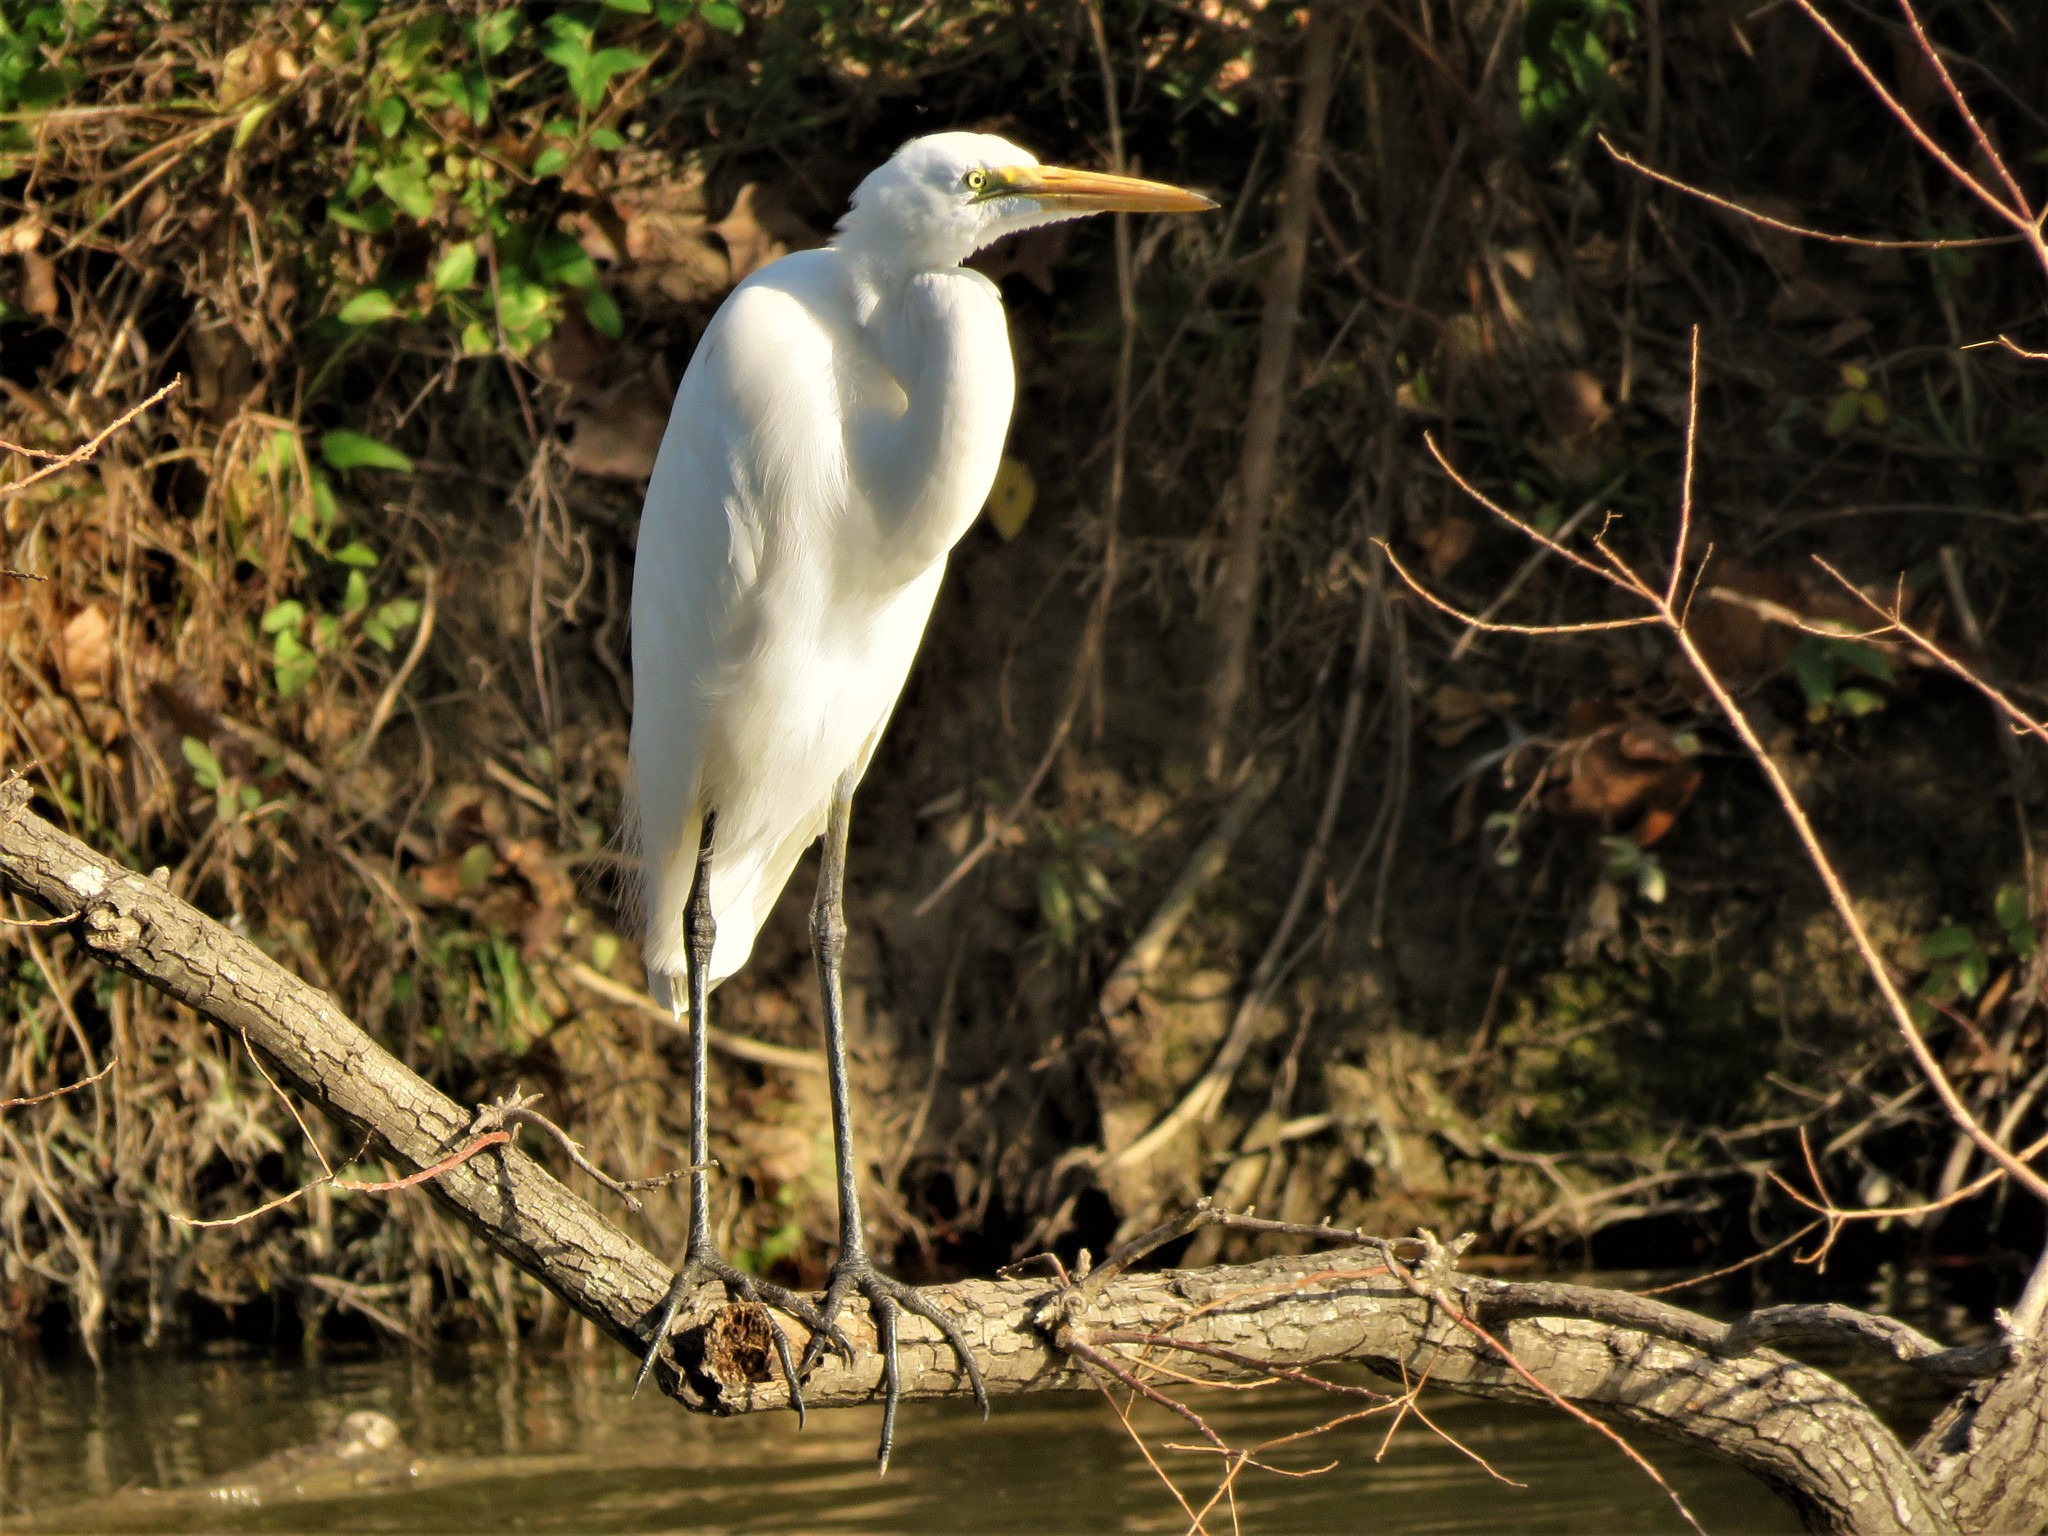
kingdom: Animalia
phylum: Chordata
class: Aves
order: Pelecaniformes
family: Ardeidae
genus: Ardea
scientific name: Ardea alba
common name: Great egret
